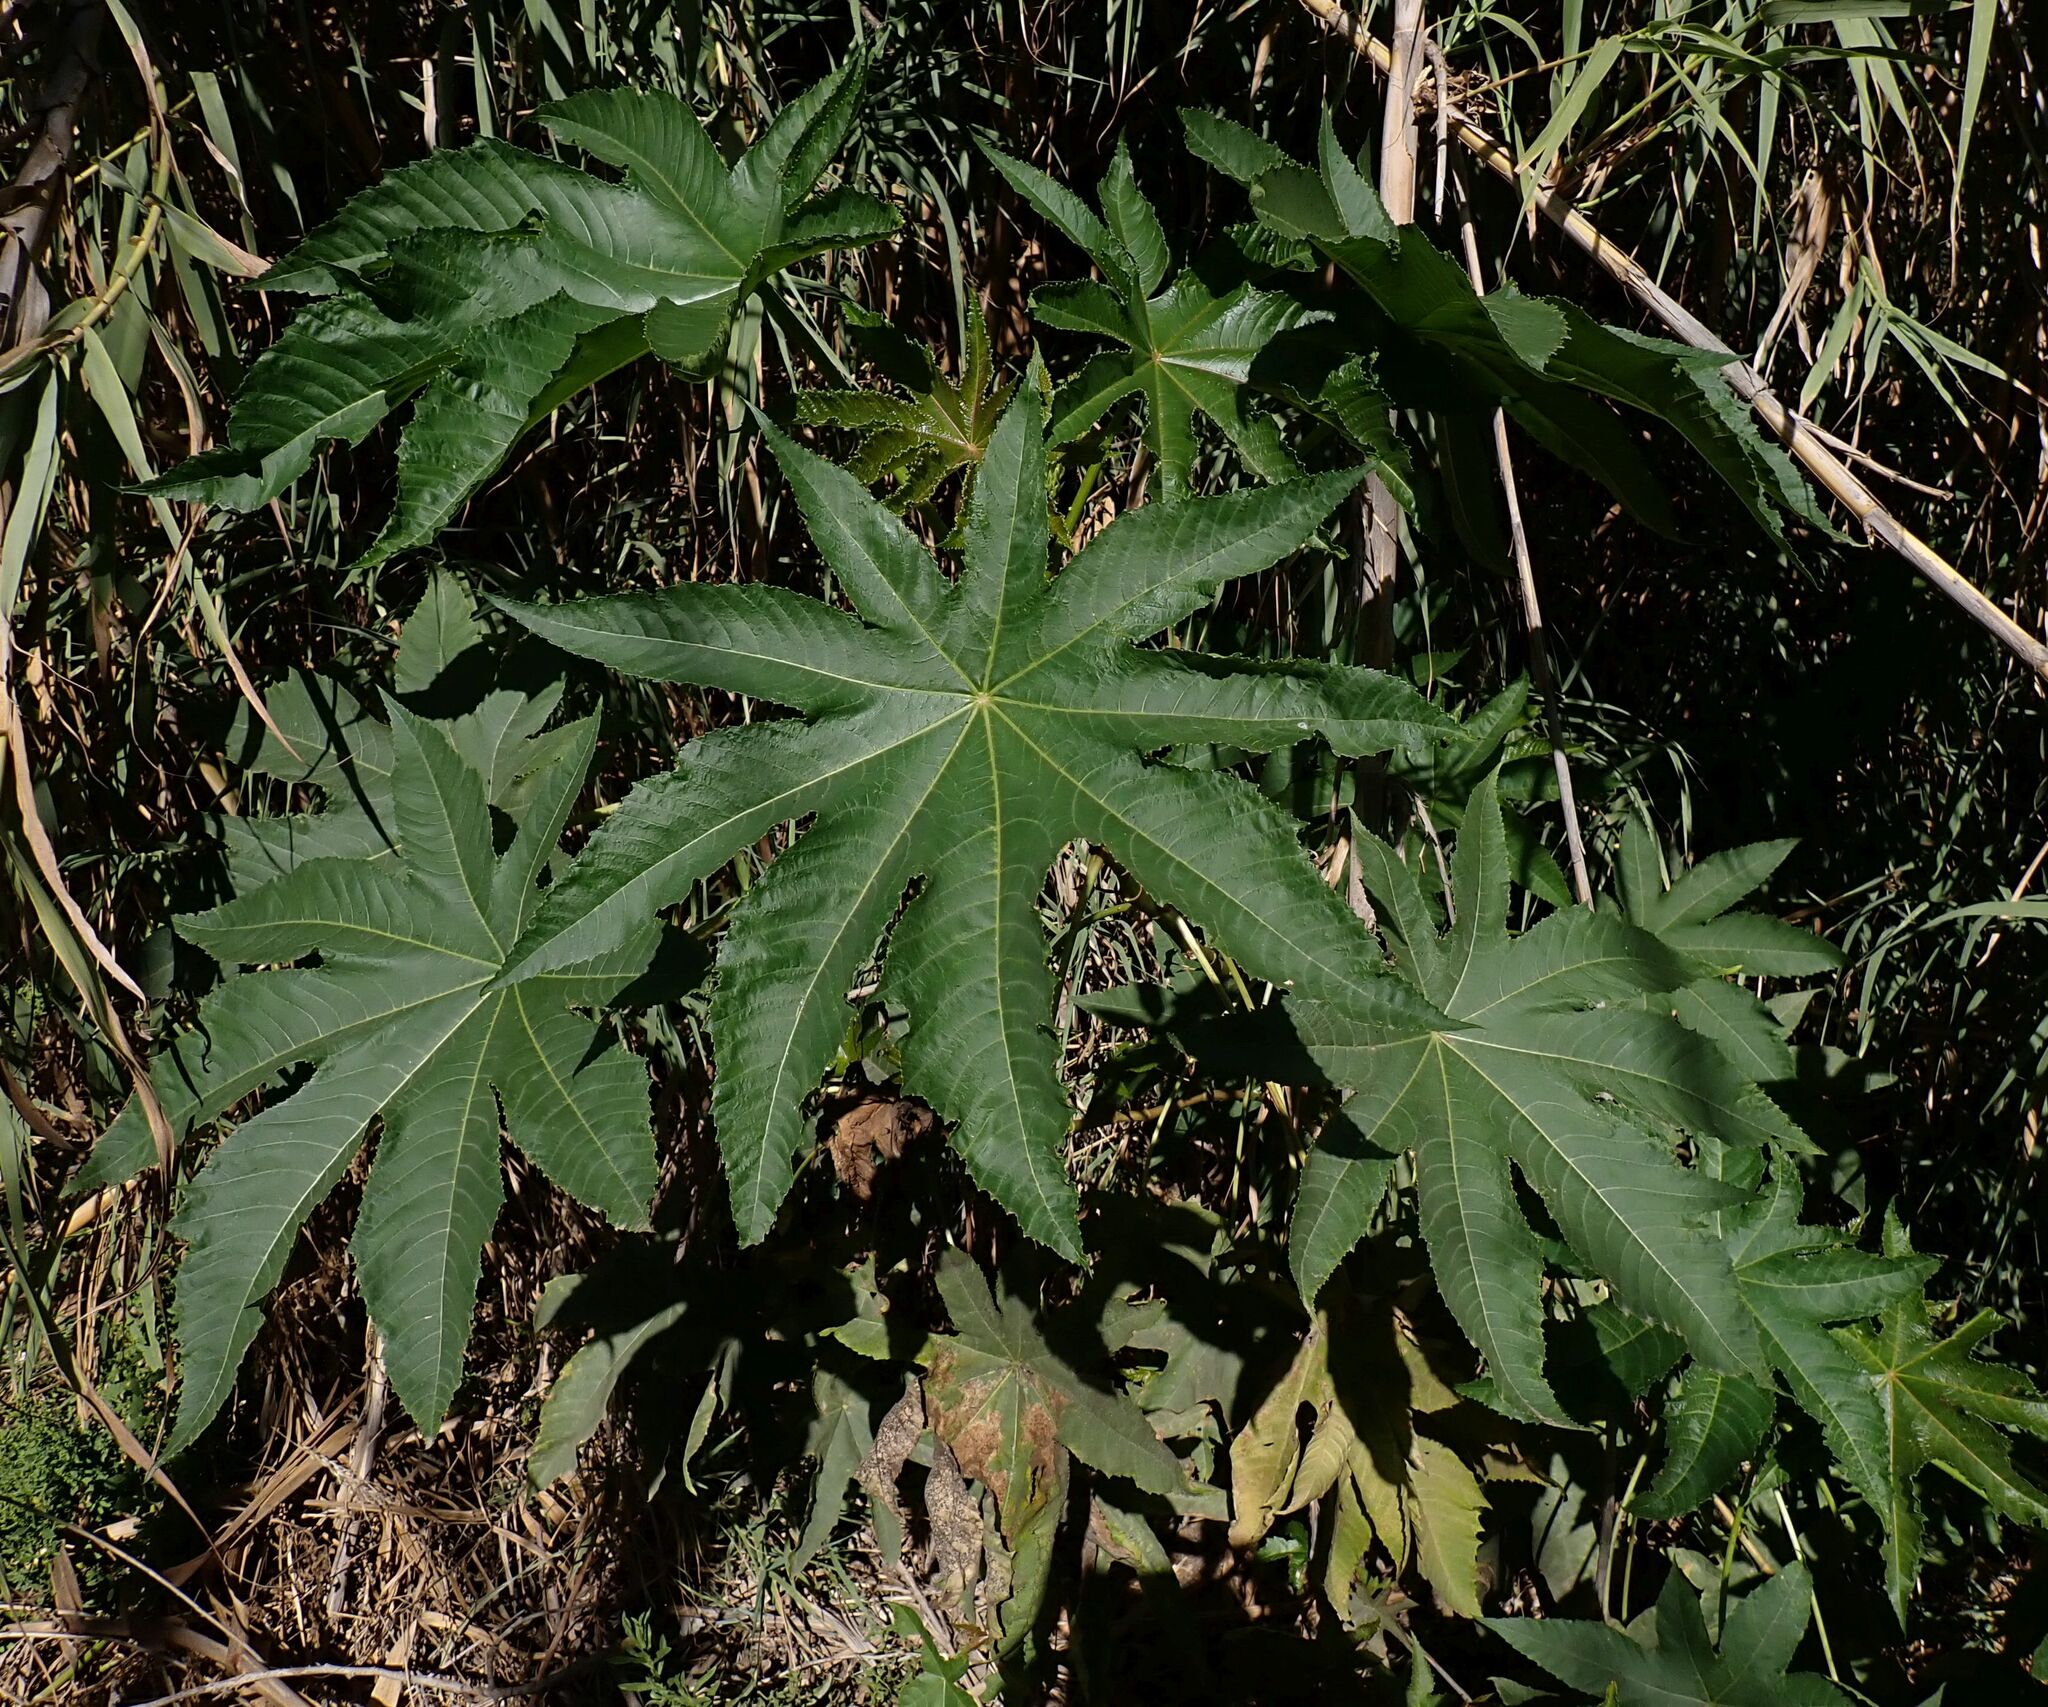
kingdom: Plantae
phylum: Tracheophyta
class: Magnoliopsida
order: Malpighiales
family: Euphorbiaceae
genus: Ricinus
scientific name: Ricinus communis
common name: Castor-oil-plant
